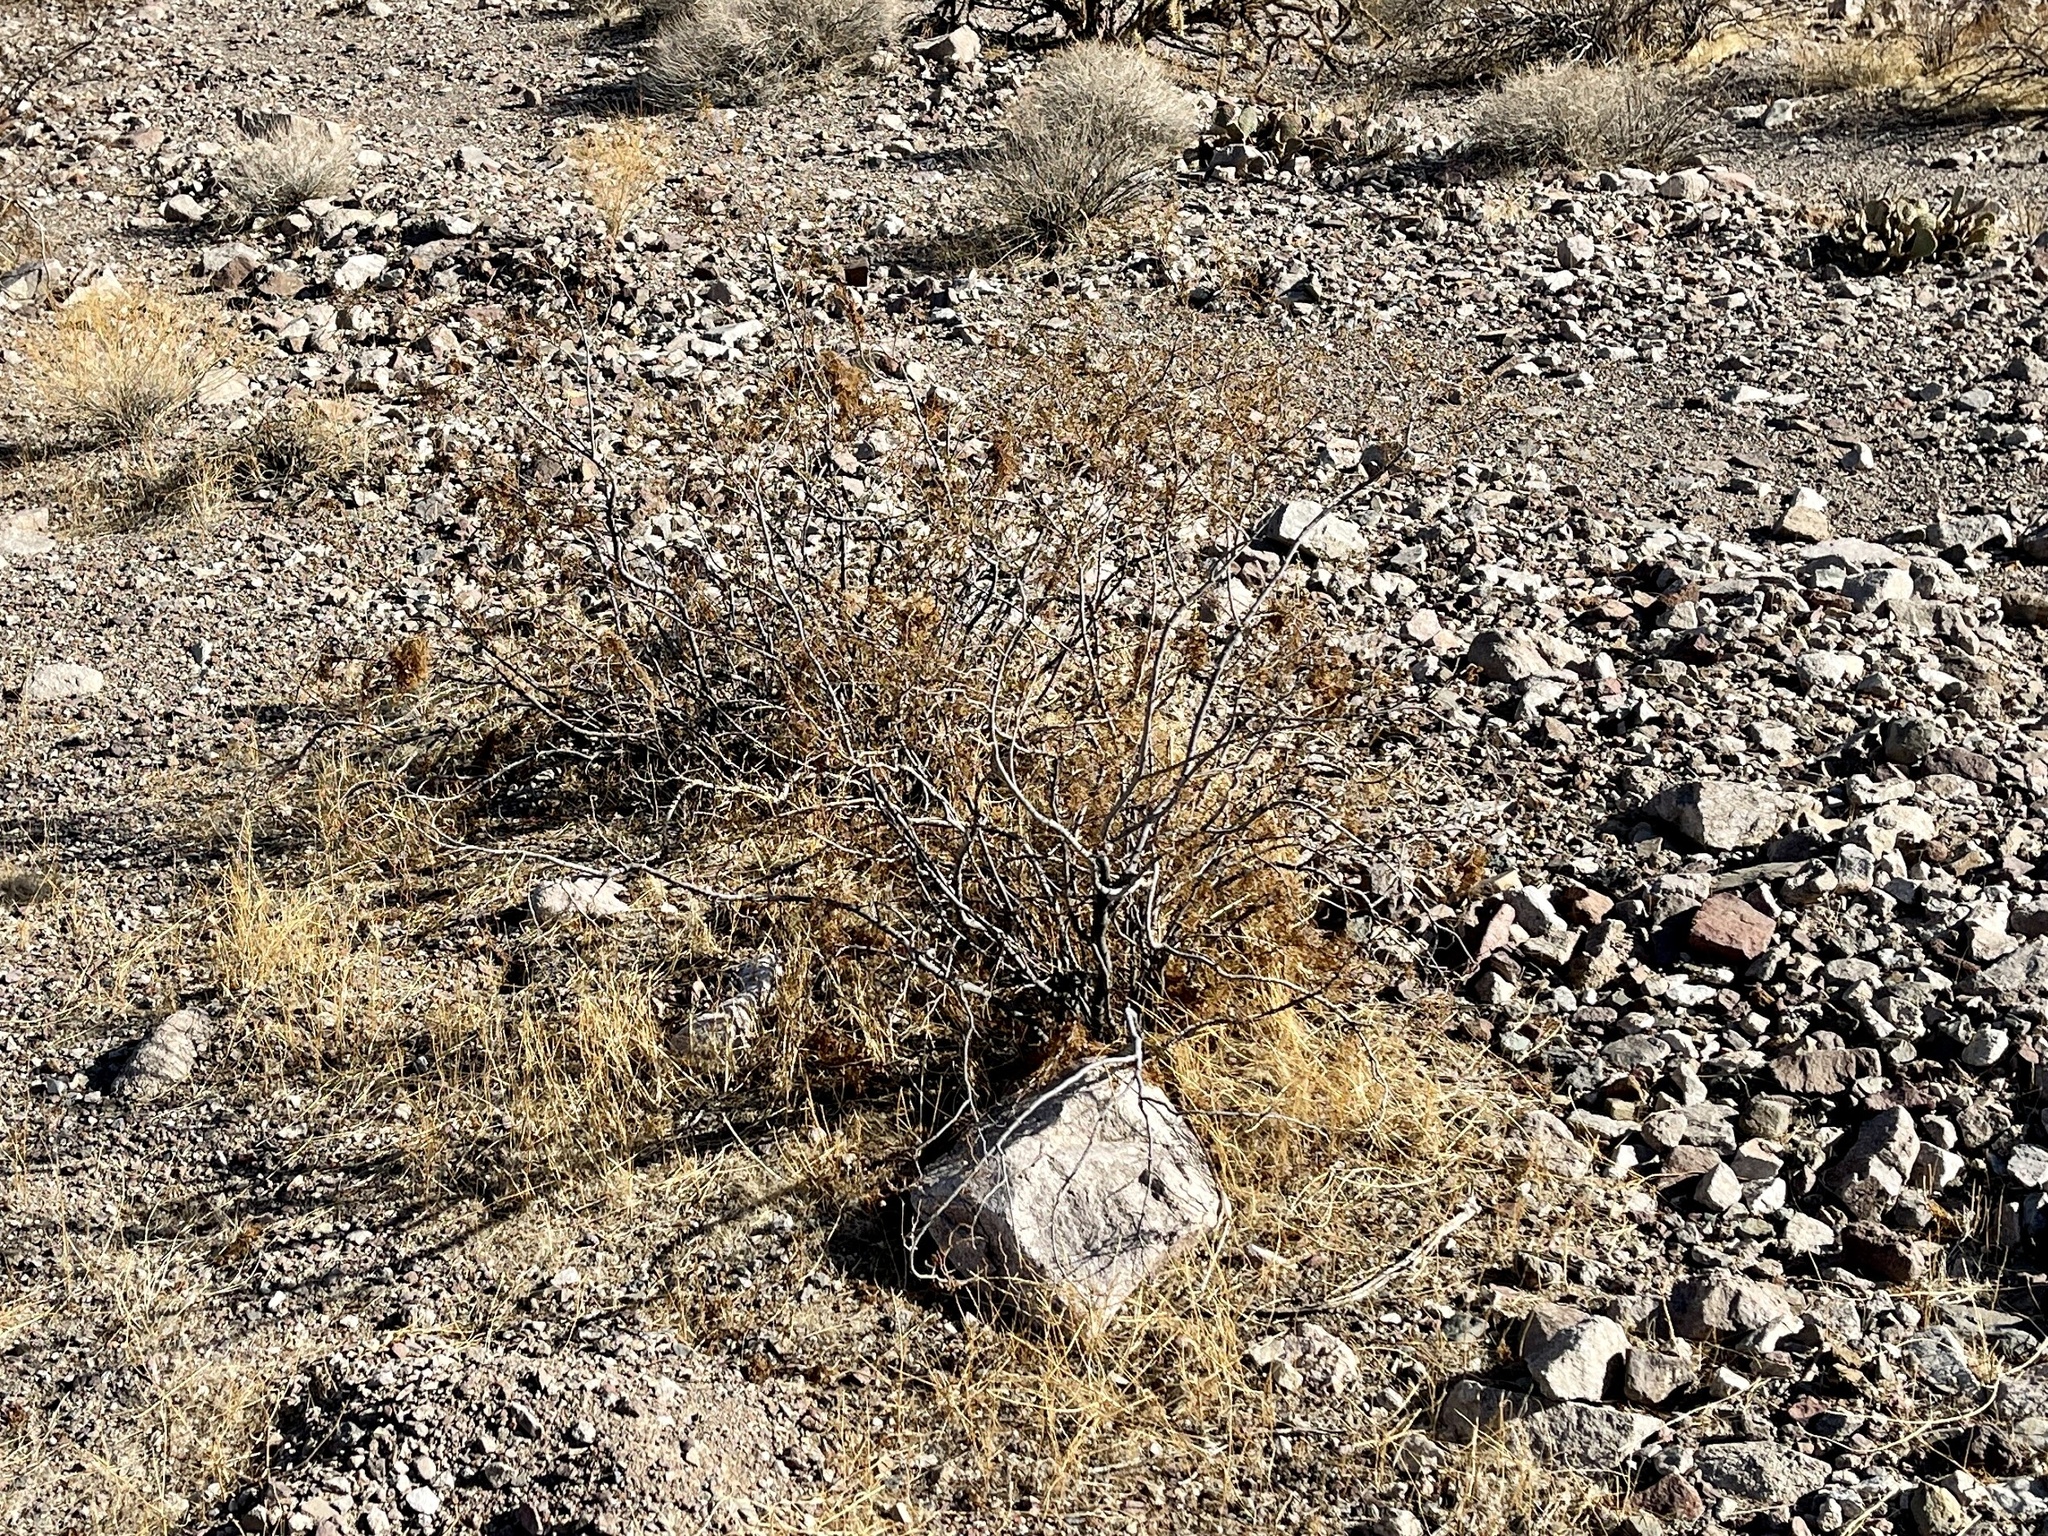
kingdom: Plantae
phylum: Tracheophyta
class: Magnoliopsida
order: Zygophyllales
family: Zygophyllaceae
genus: Larrea
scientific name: Larrea tridentata
